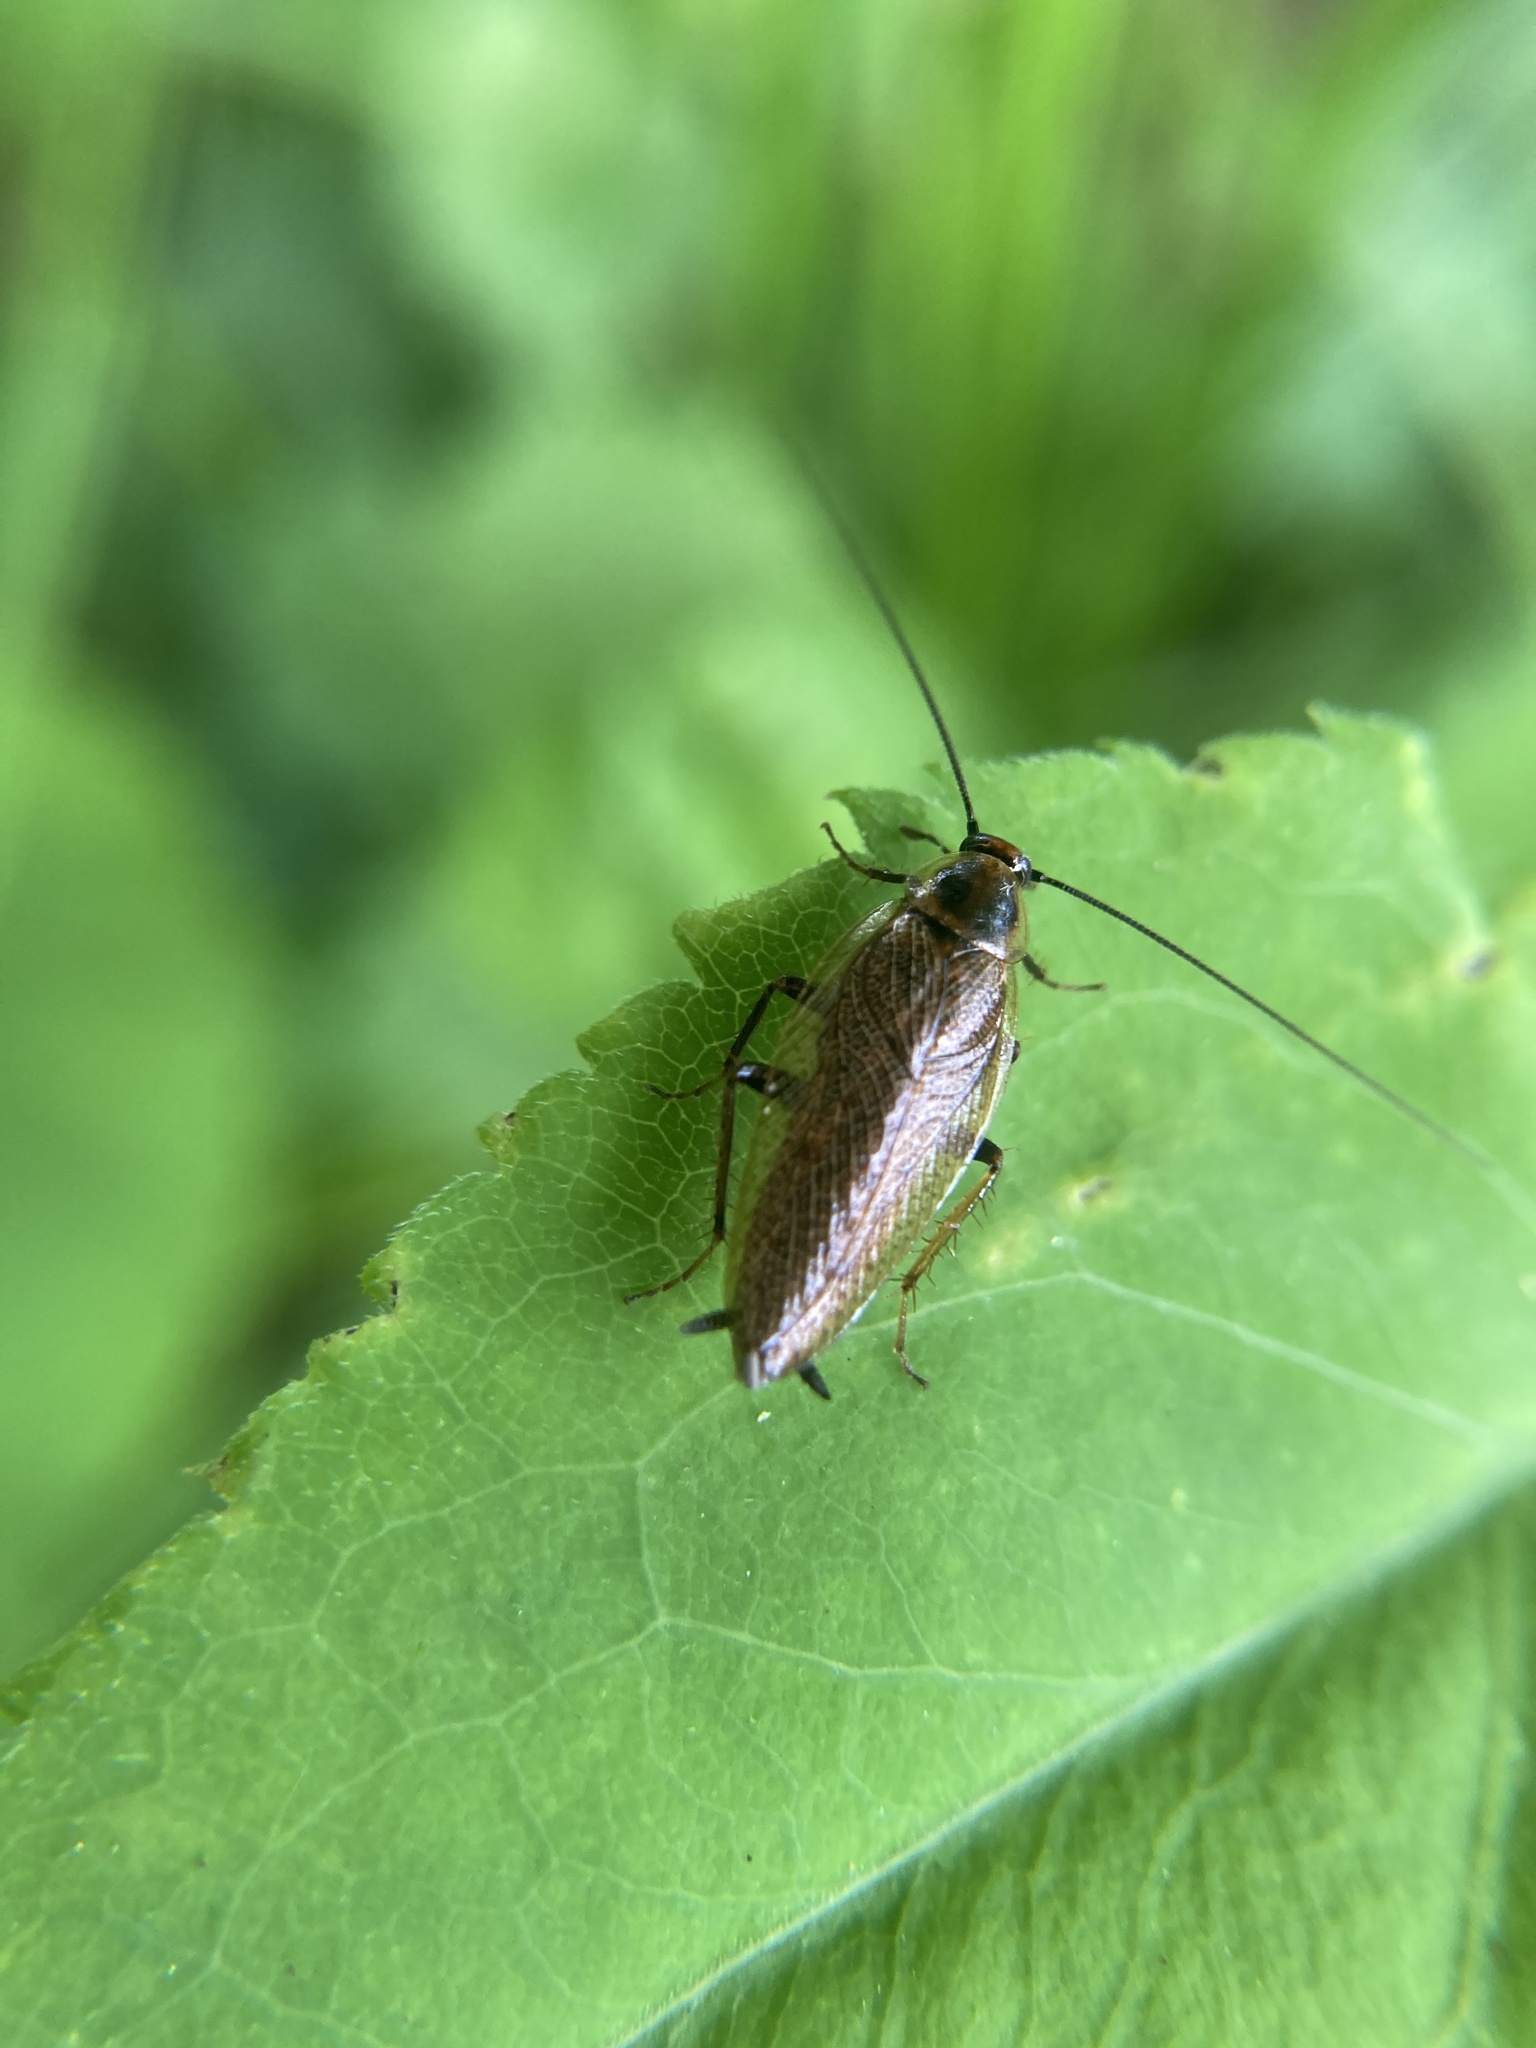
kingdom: Animalia
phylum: Arthropoda
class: Insecta
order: Blattodea
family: Ectobiidae
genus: Ectobius
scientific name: Ectobius lapponicus
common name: Dusky cockroach
